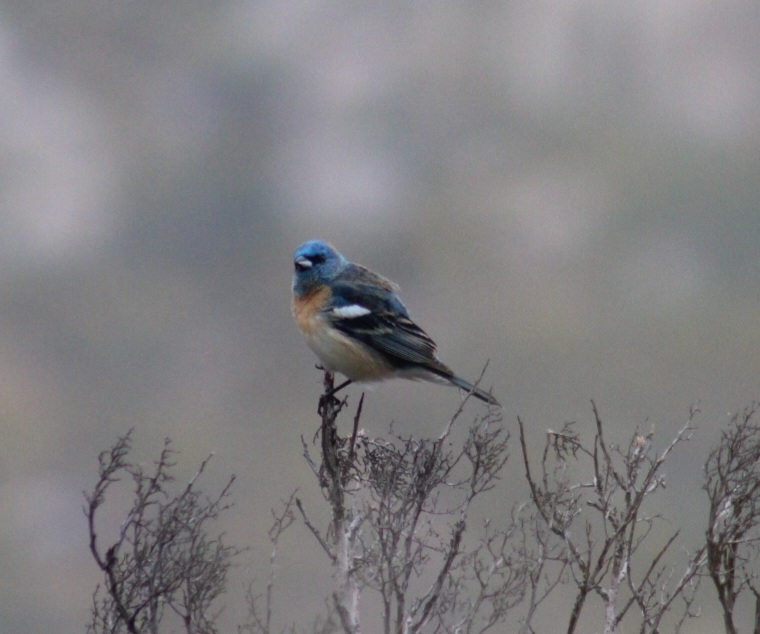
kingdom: Animalia
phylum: Chordata
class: Aves
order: Passeriformes
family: Cardinalidae
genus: Passerina
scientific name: Passerina amoena
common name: Lazuli bunting
